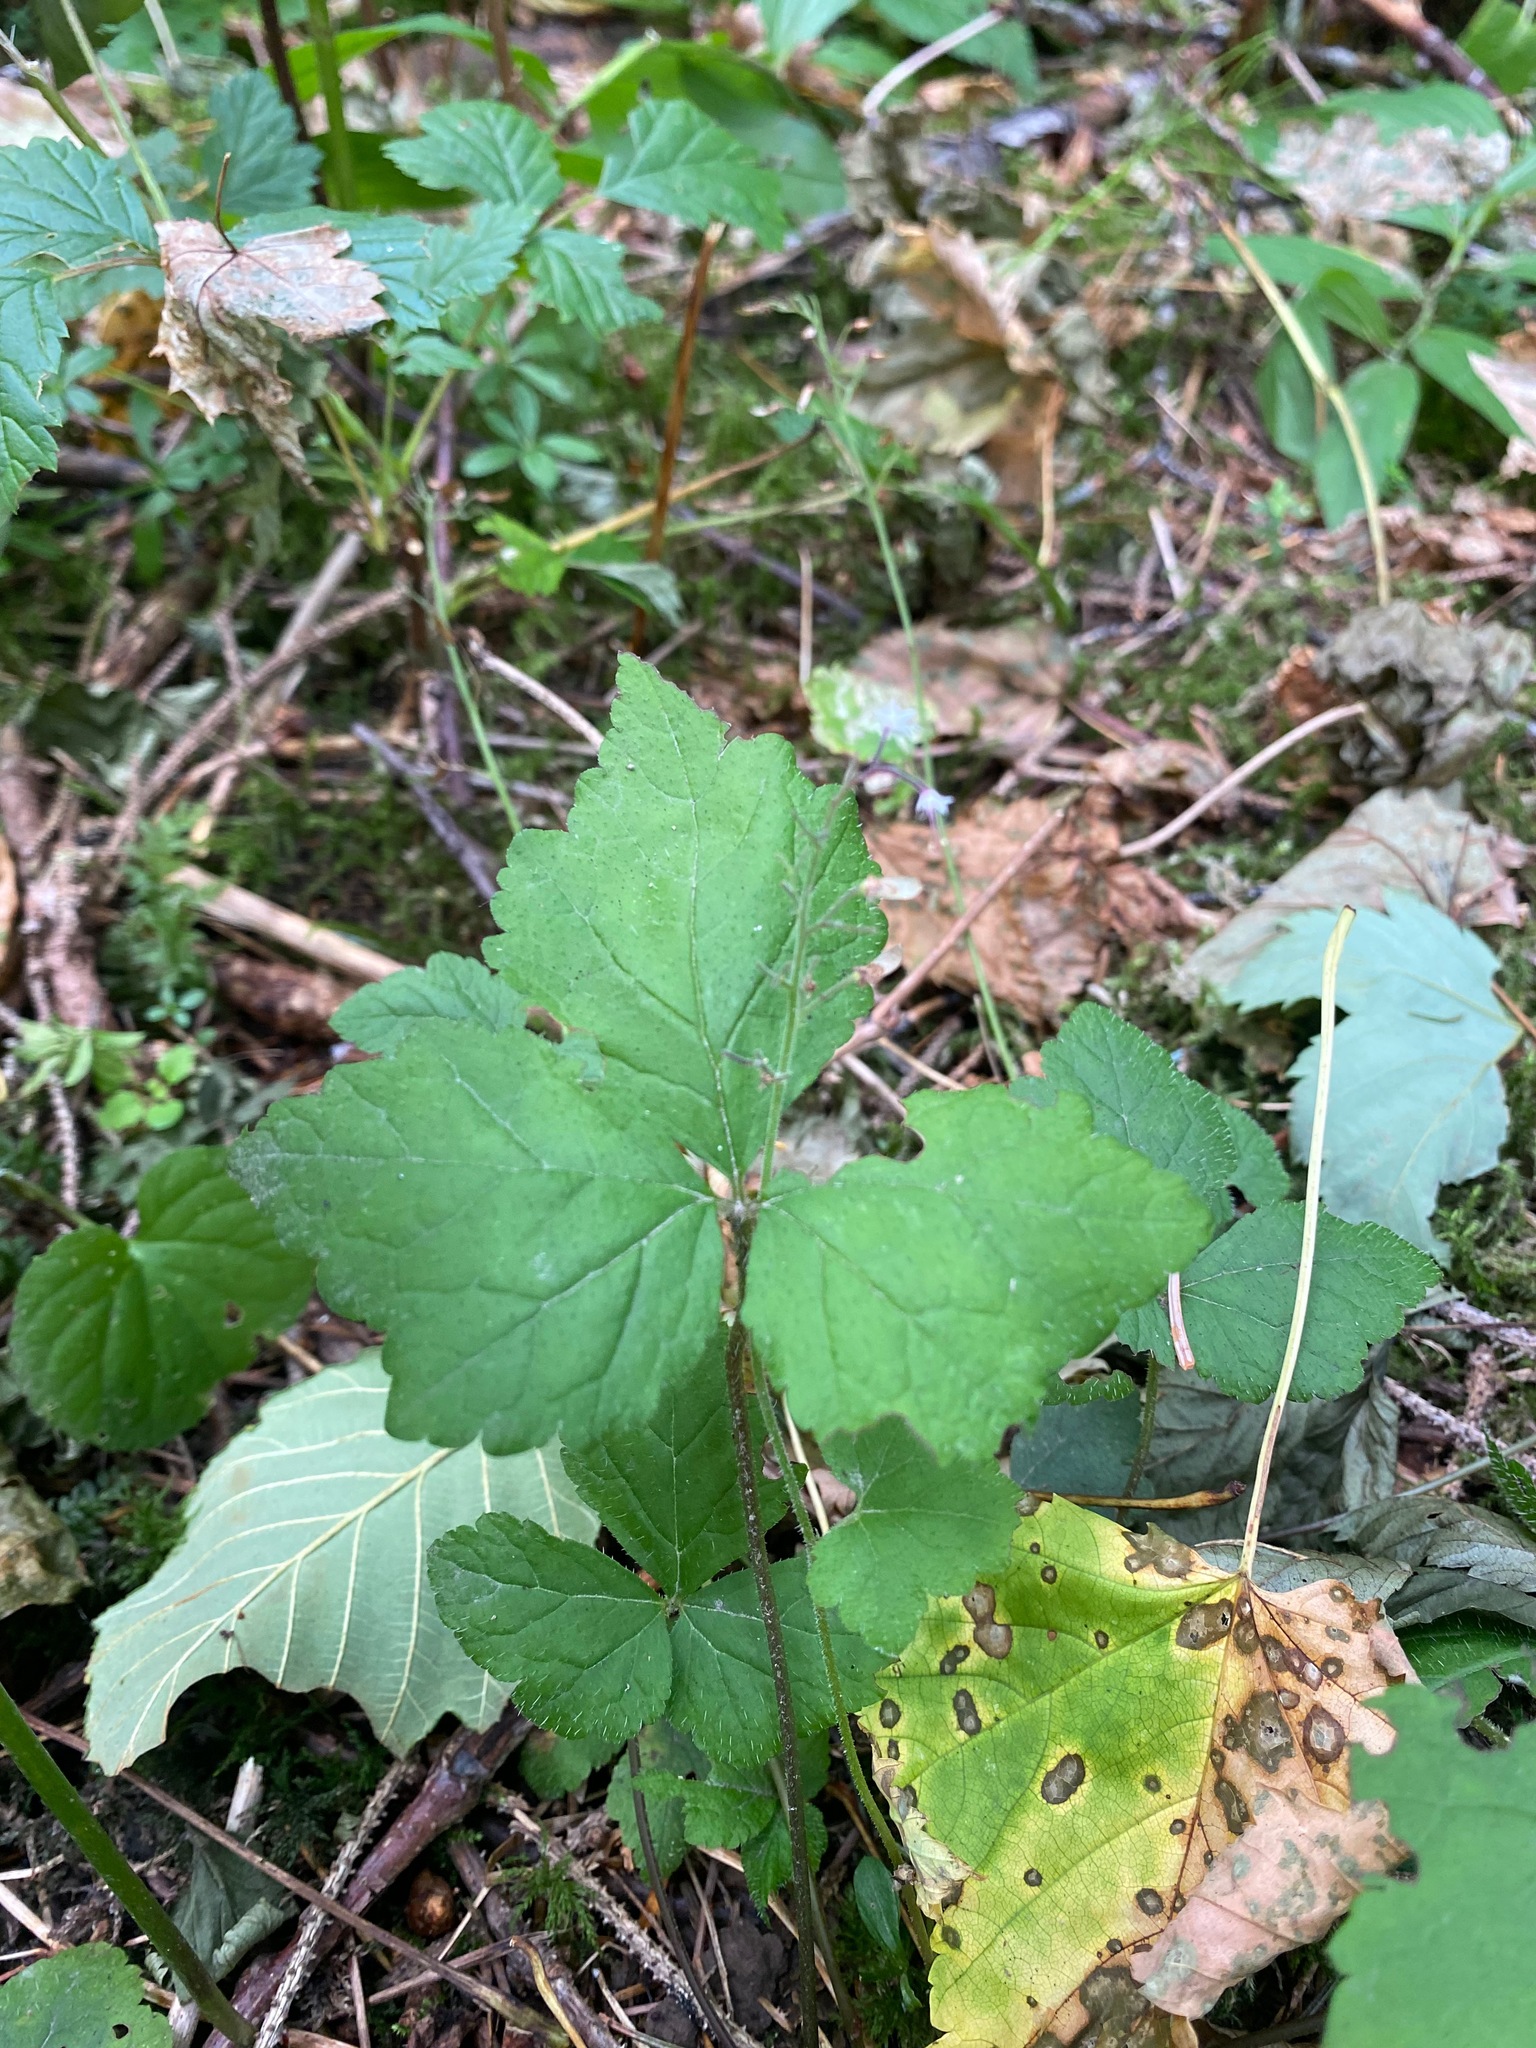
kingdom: Plantae
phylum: Tracheophyta
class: Magnoliopsida
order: Saxifragales
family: Saxifragaceae
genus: Tiarella
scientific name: Tiarella trifoliata
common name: Sugar-scoop
